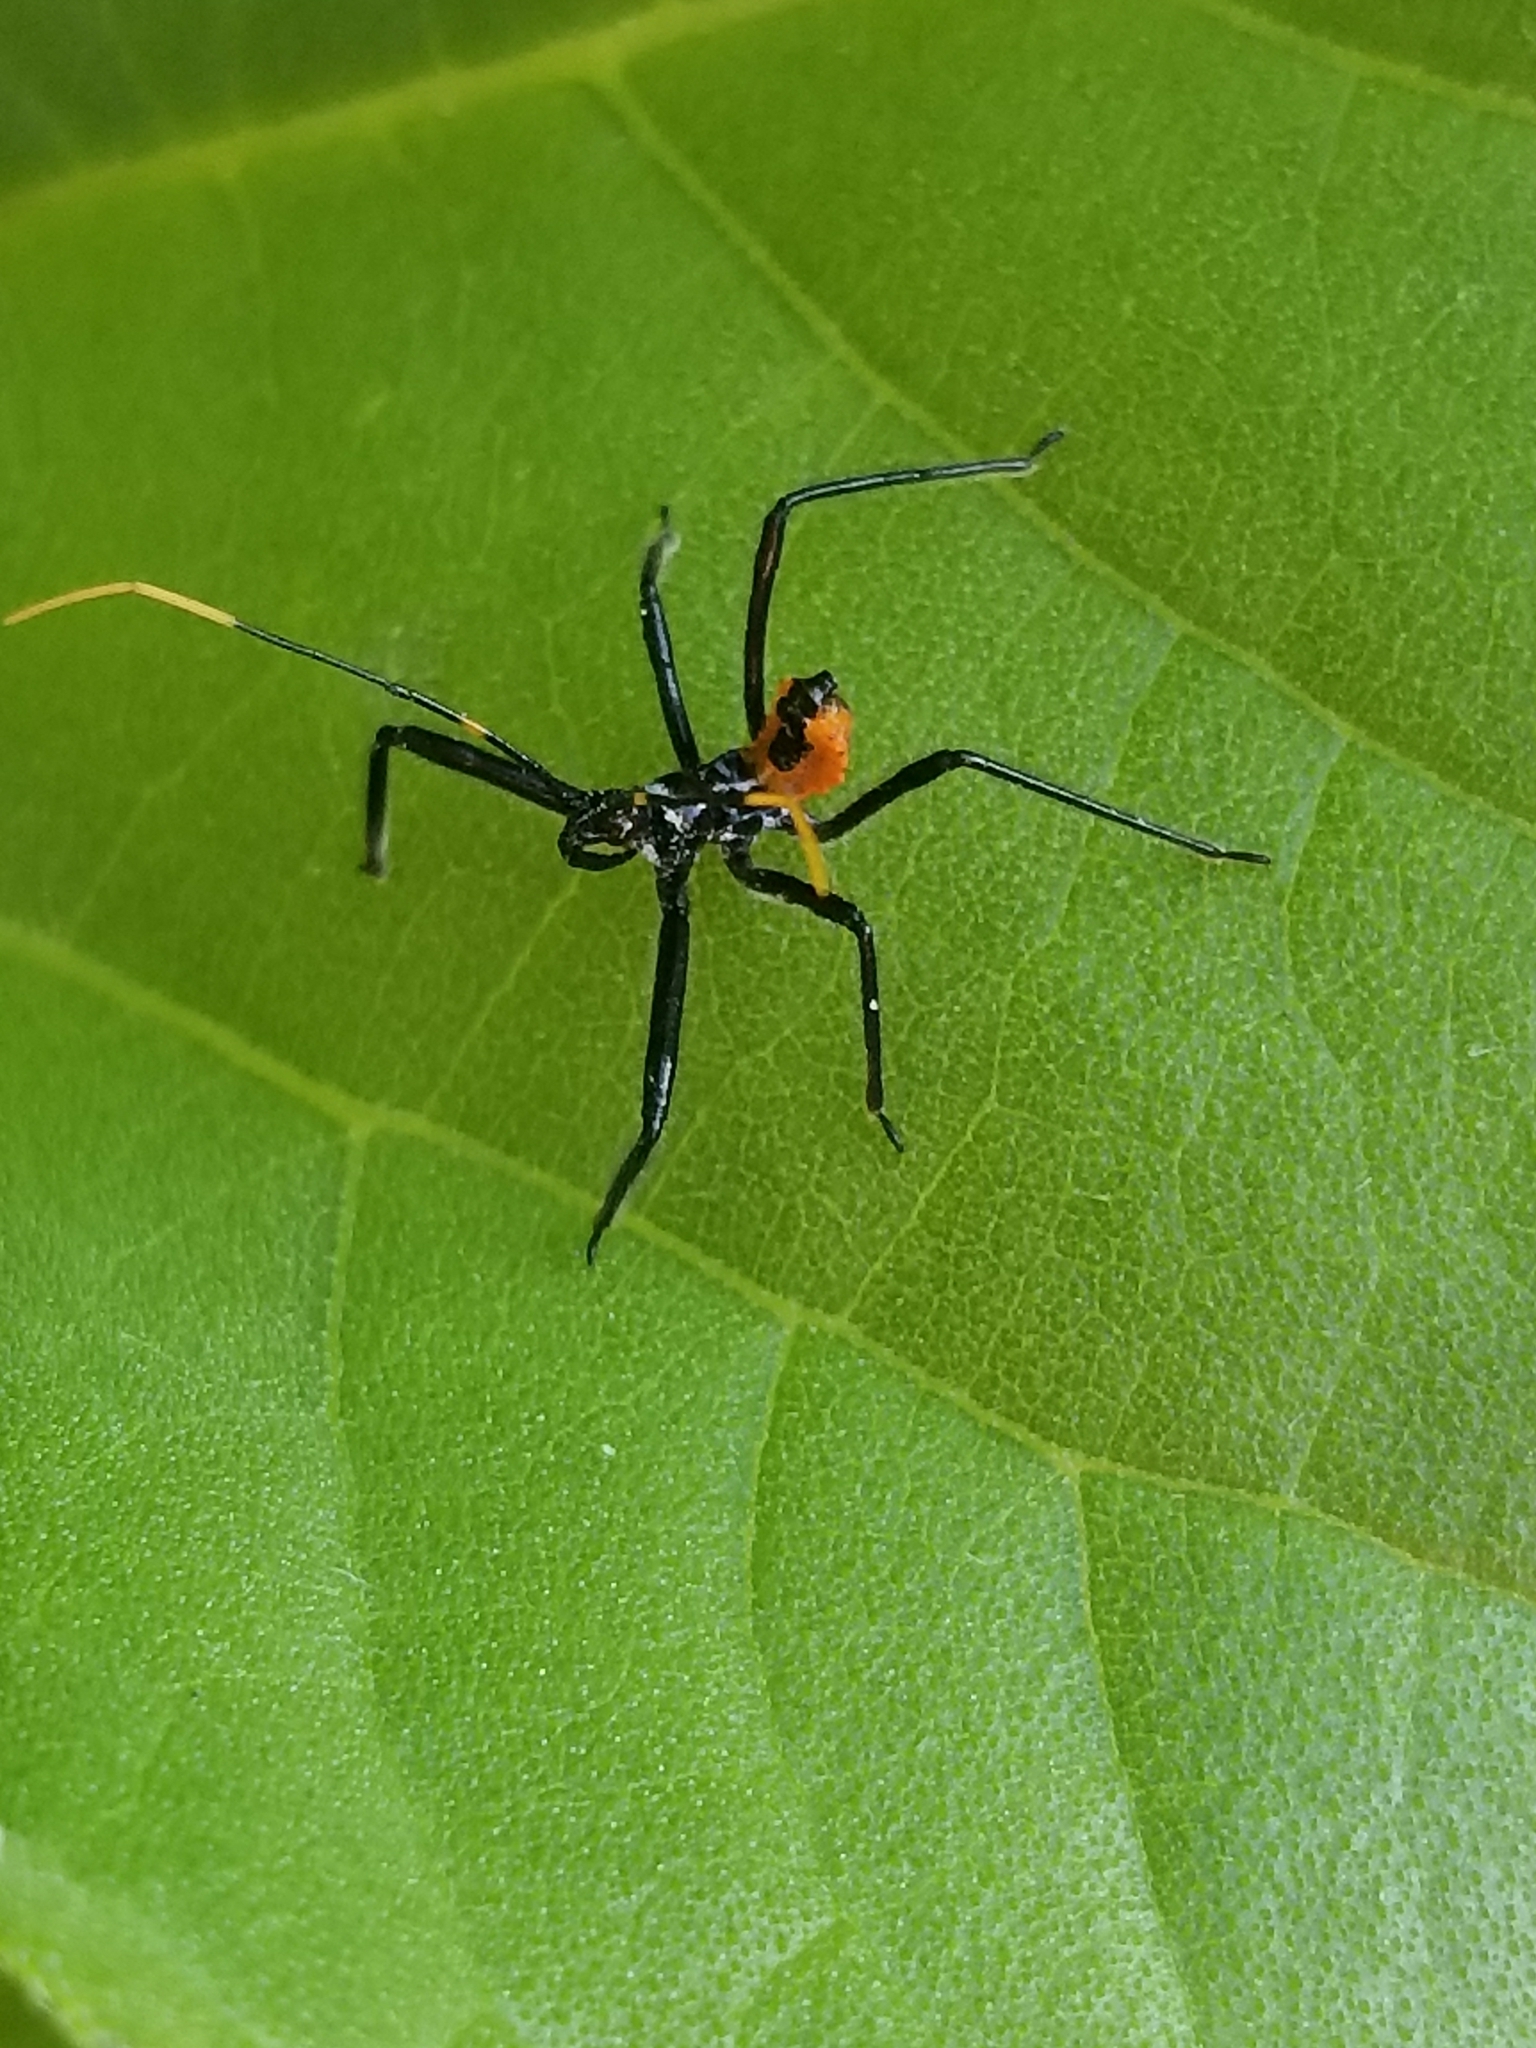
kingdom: Animalia
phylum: Arthropoda
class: Insecta
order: Hemiptera
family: Reduviidae
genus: Arilus
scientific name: Arilus cristatus
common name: North american wheel bug
